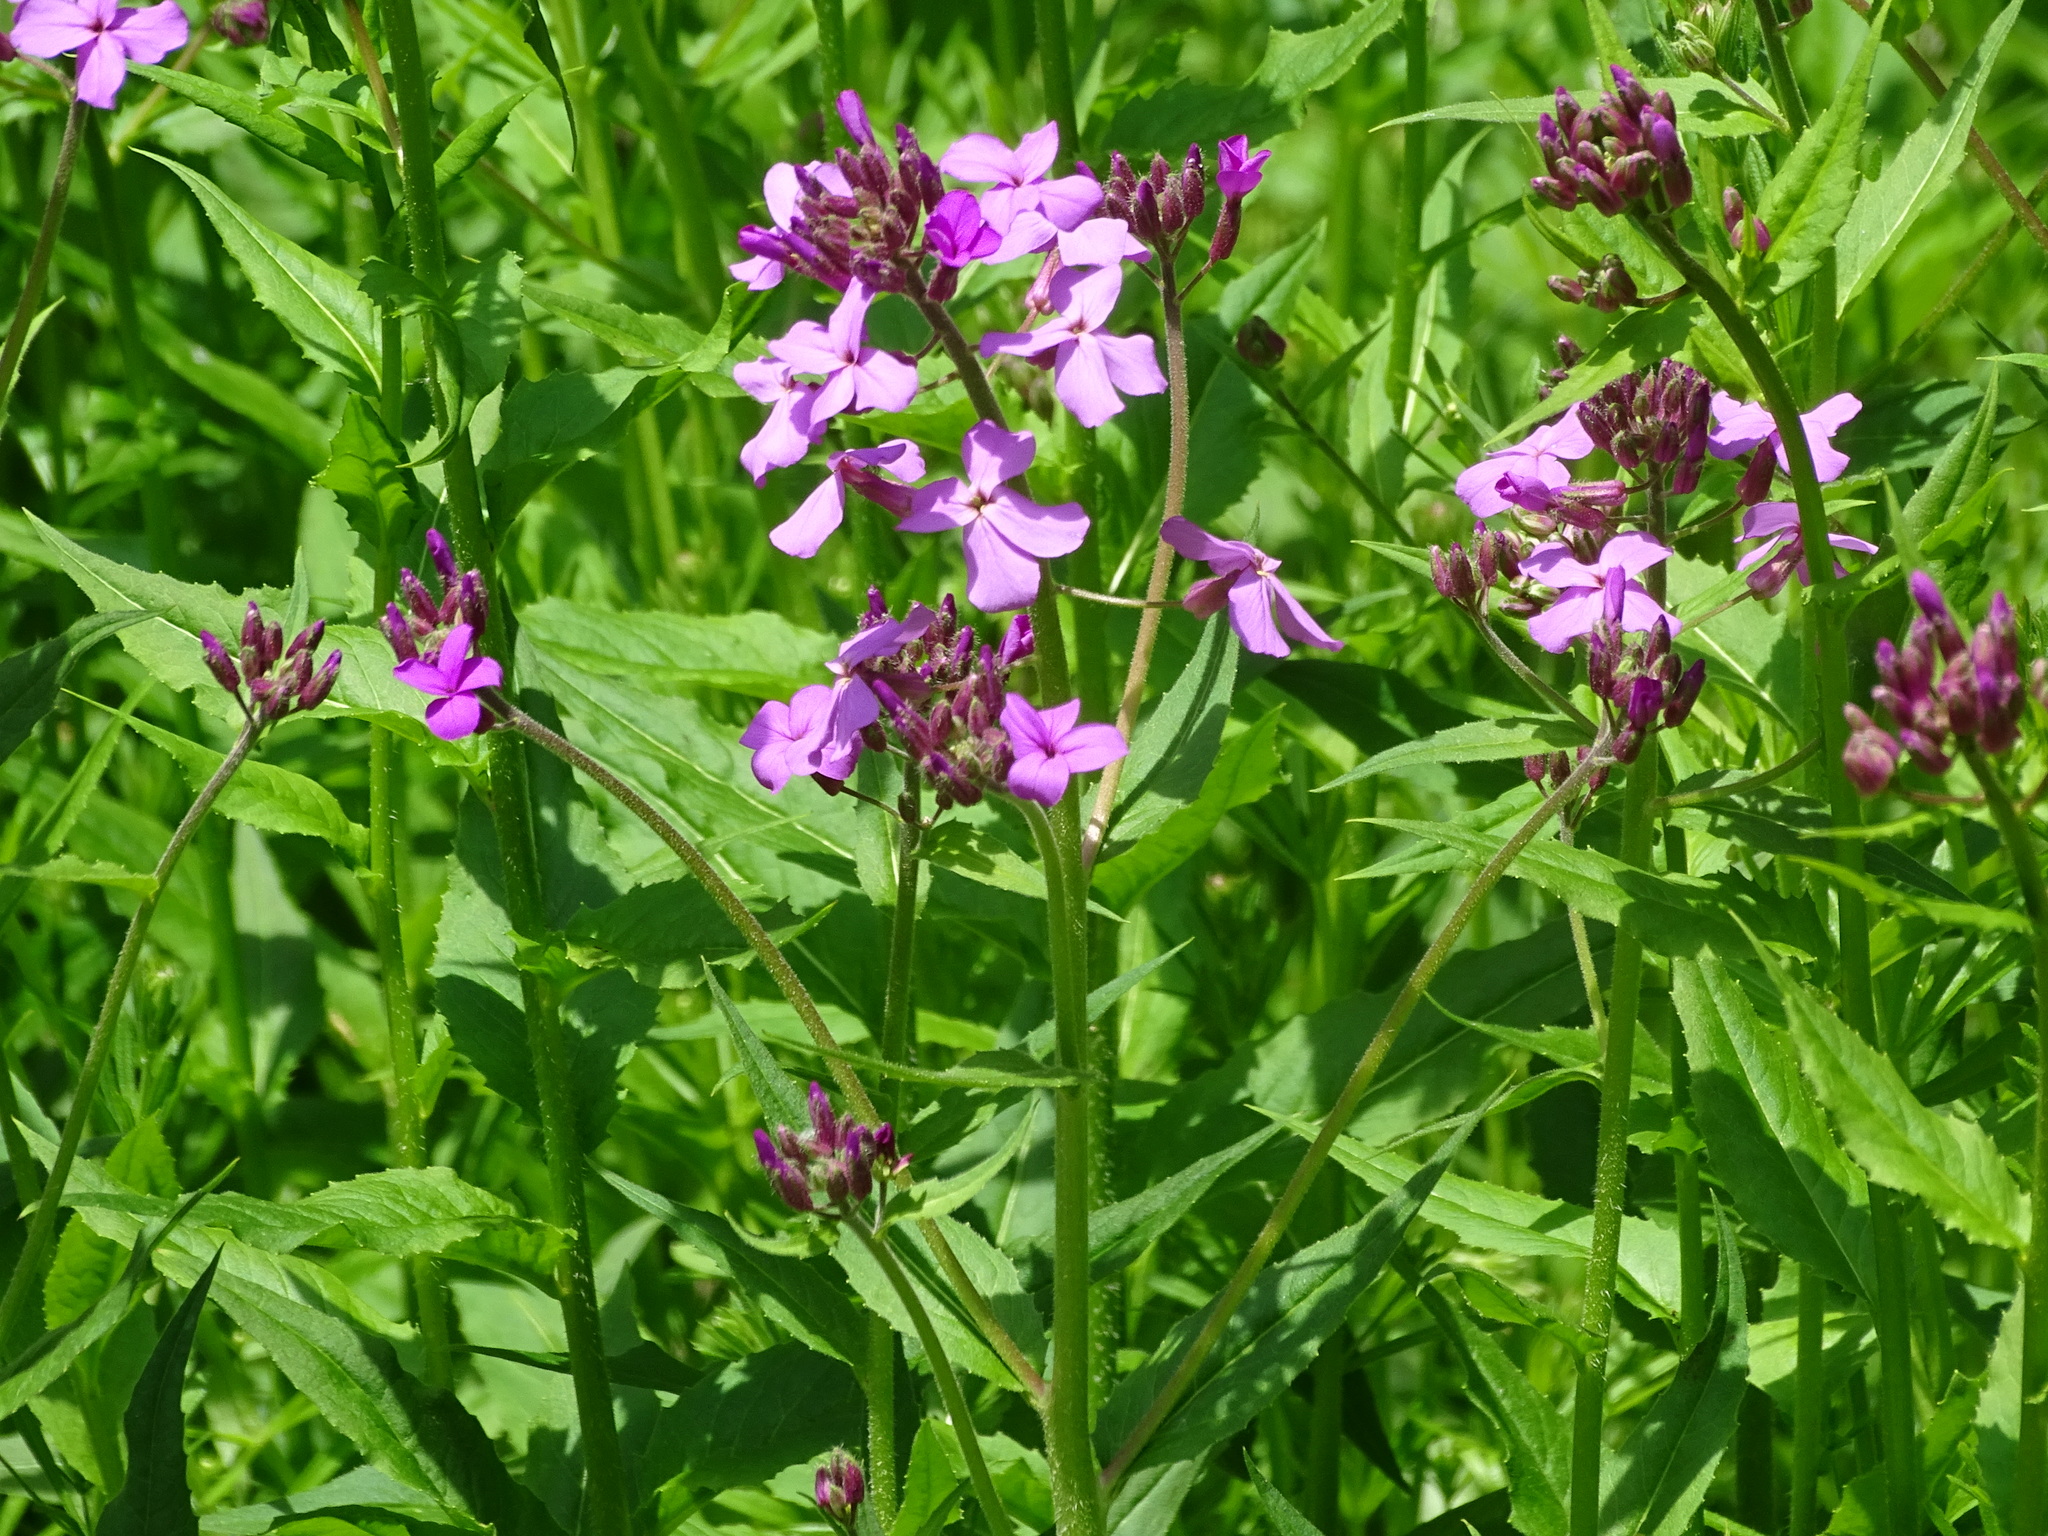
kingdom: Plantae
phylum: Tracheophyta
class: Magnoliopsida
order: Brassicales
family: Brassicaceae
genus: Hesperis
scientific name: Hesperis matronalis
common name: Dame's-violet
